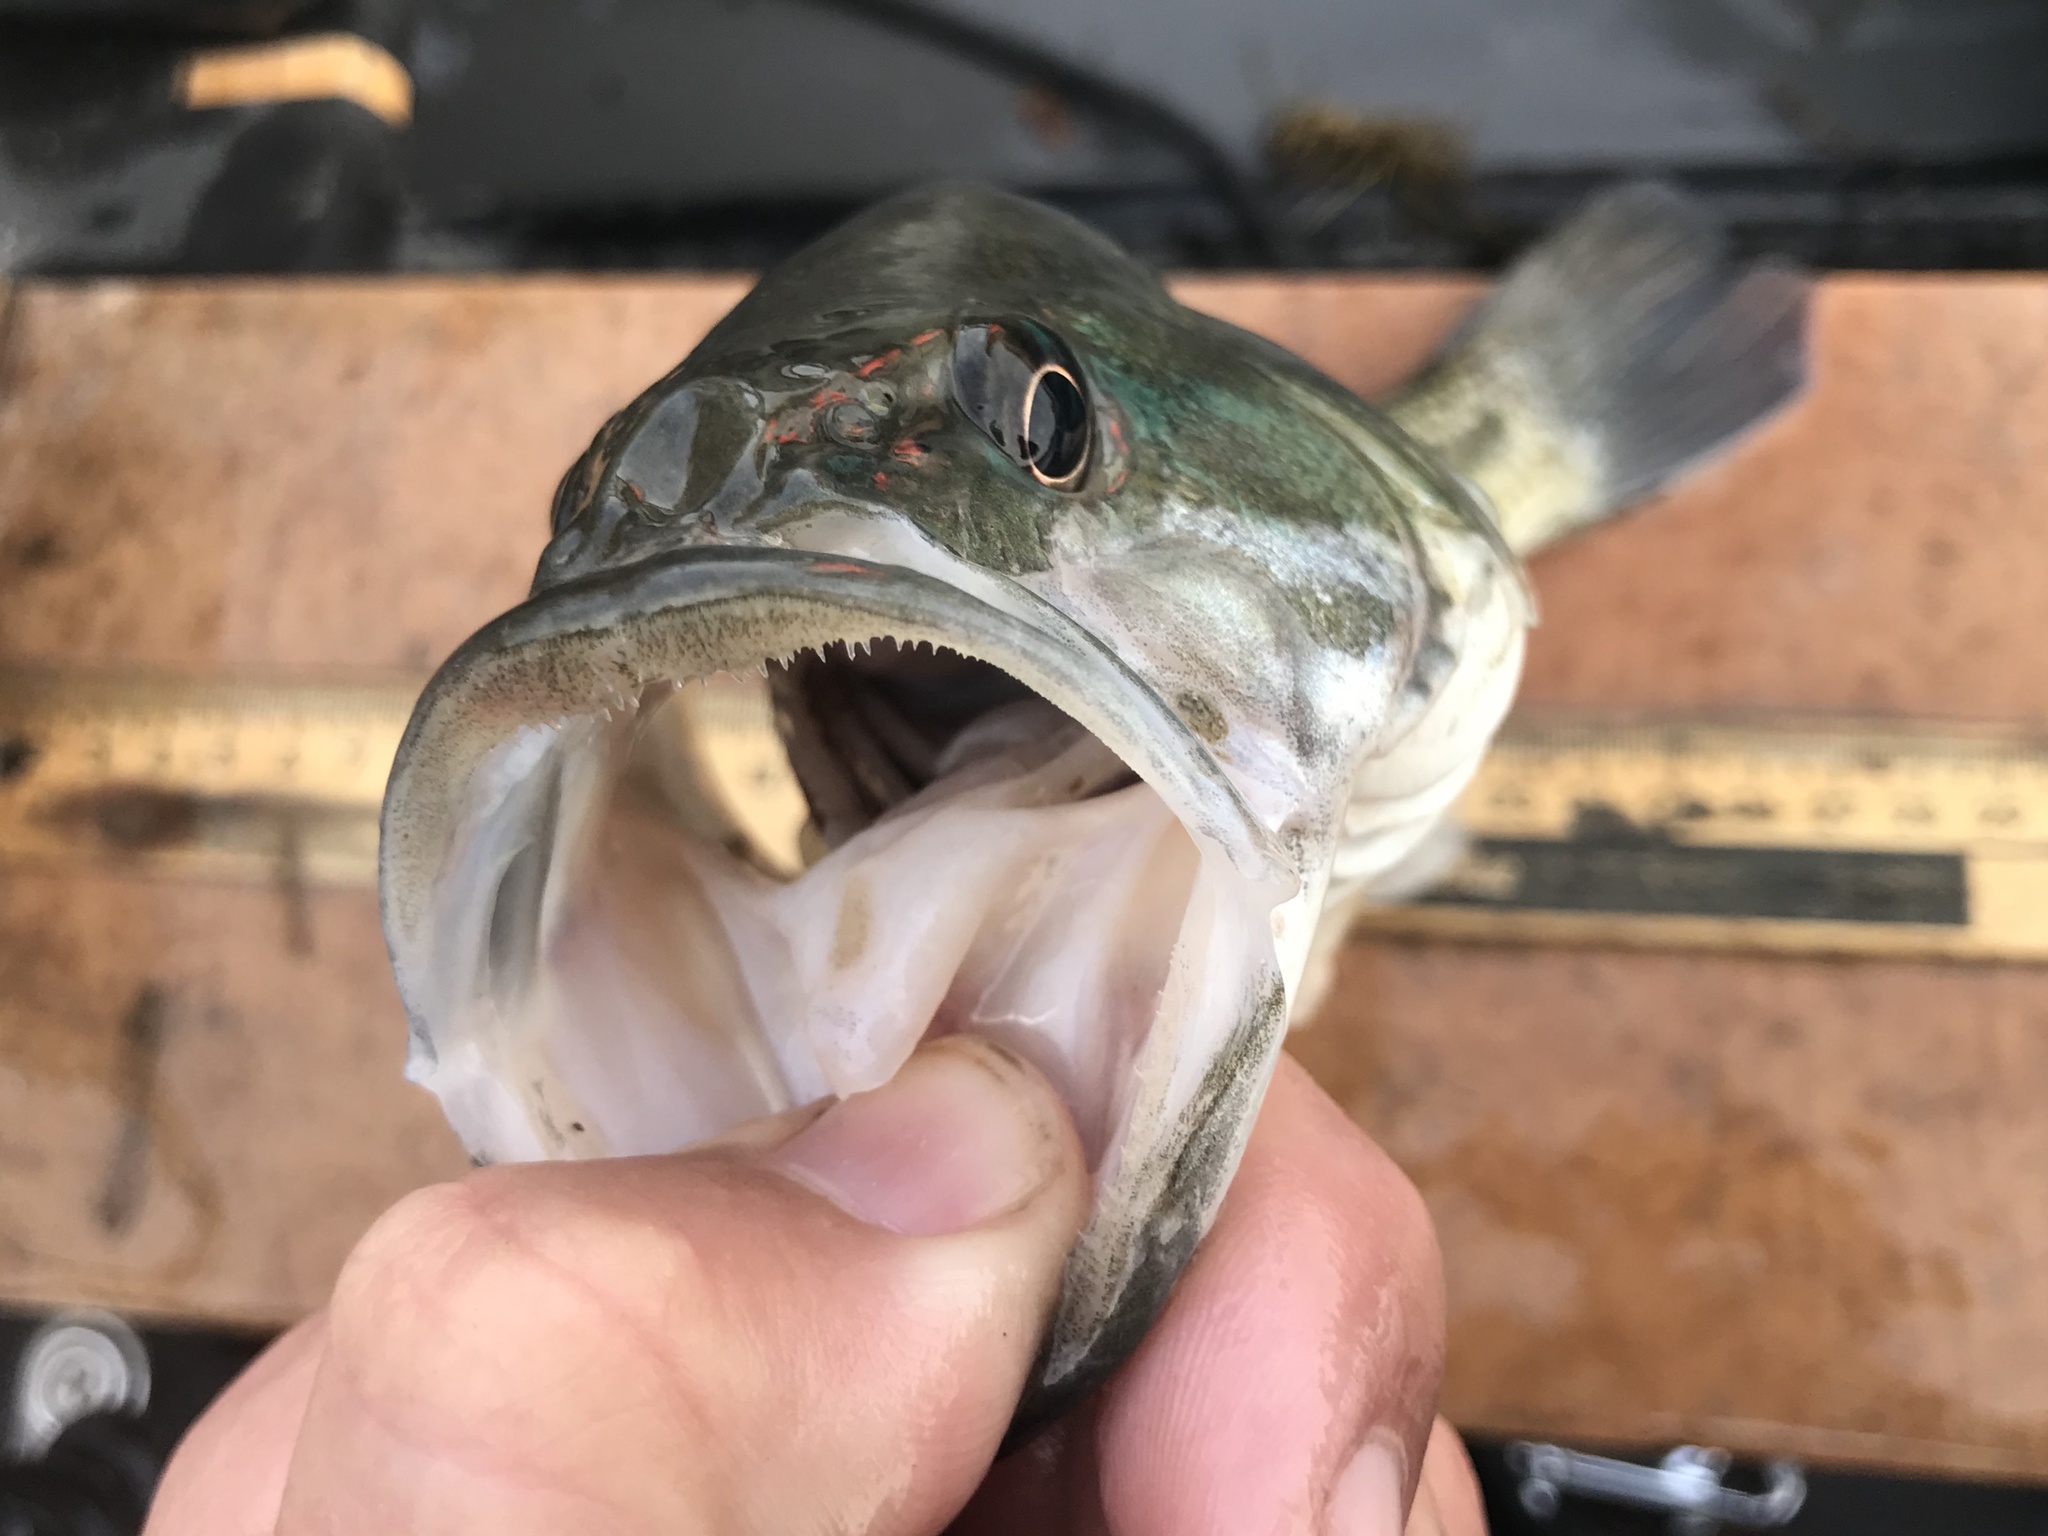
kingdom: Animalia
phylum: Chordata
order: Perciformes
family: Centrarchidae
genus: Micropterus
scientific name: Micropterus treculii
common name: Guadalupe bass
